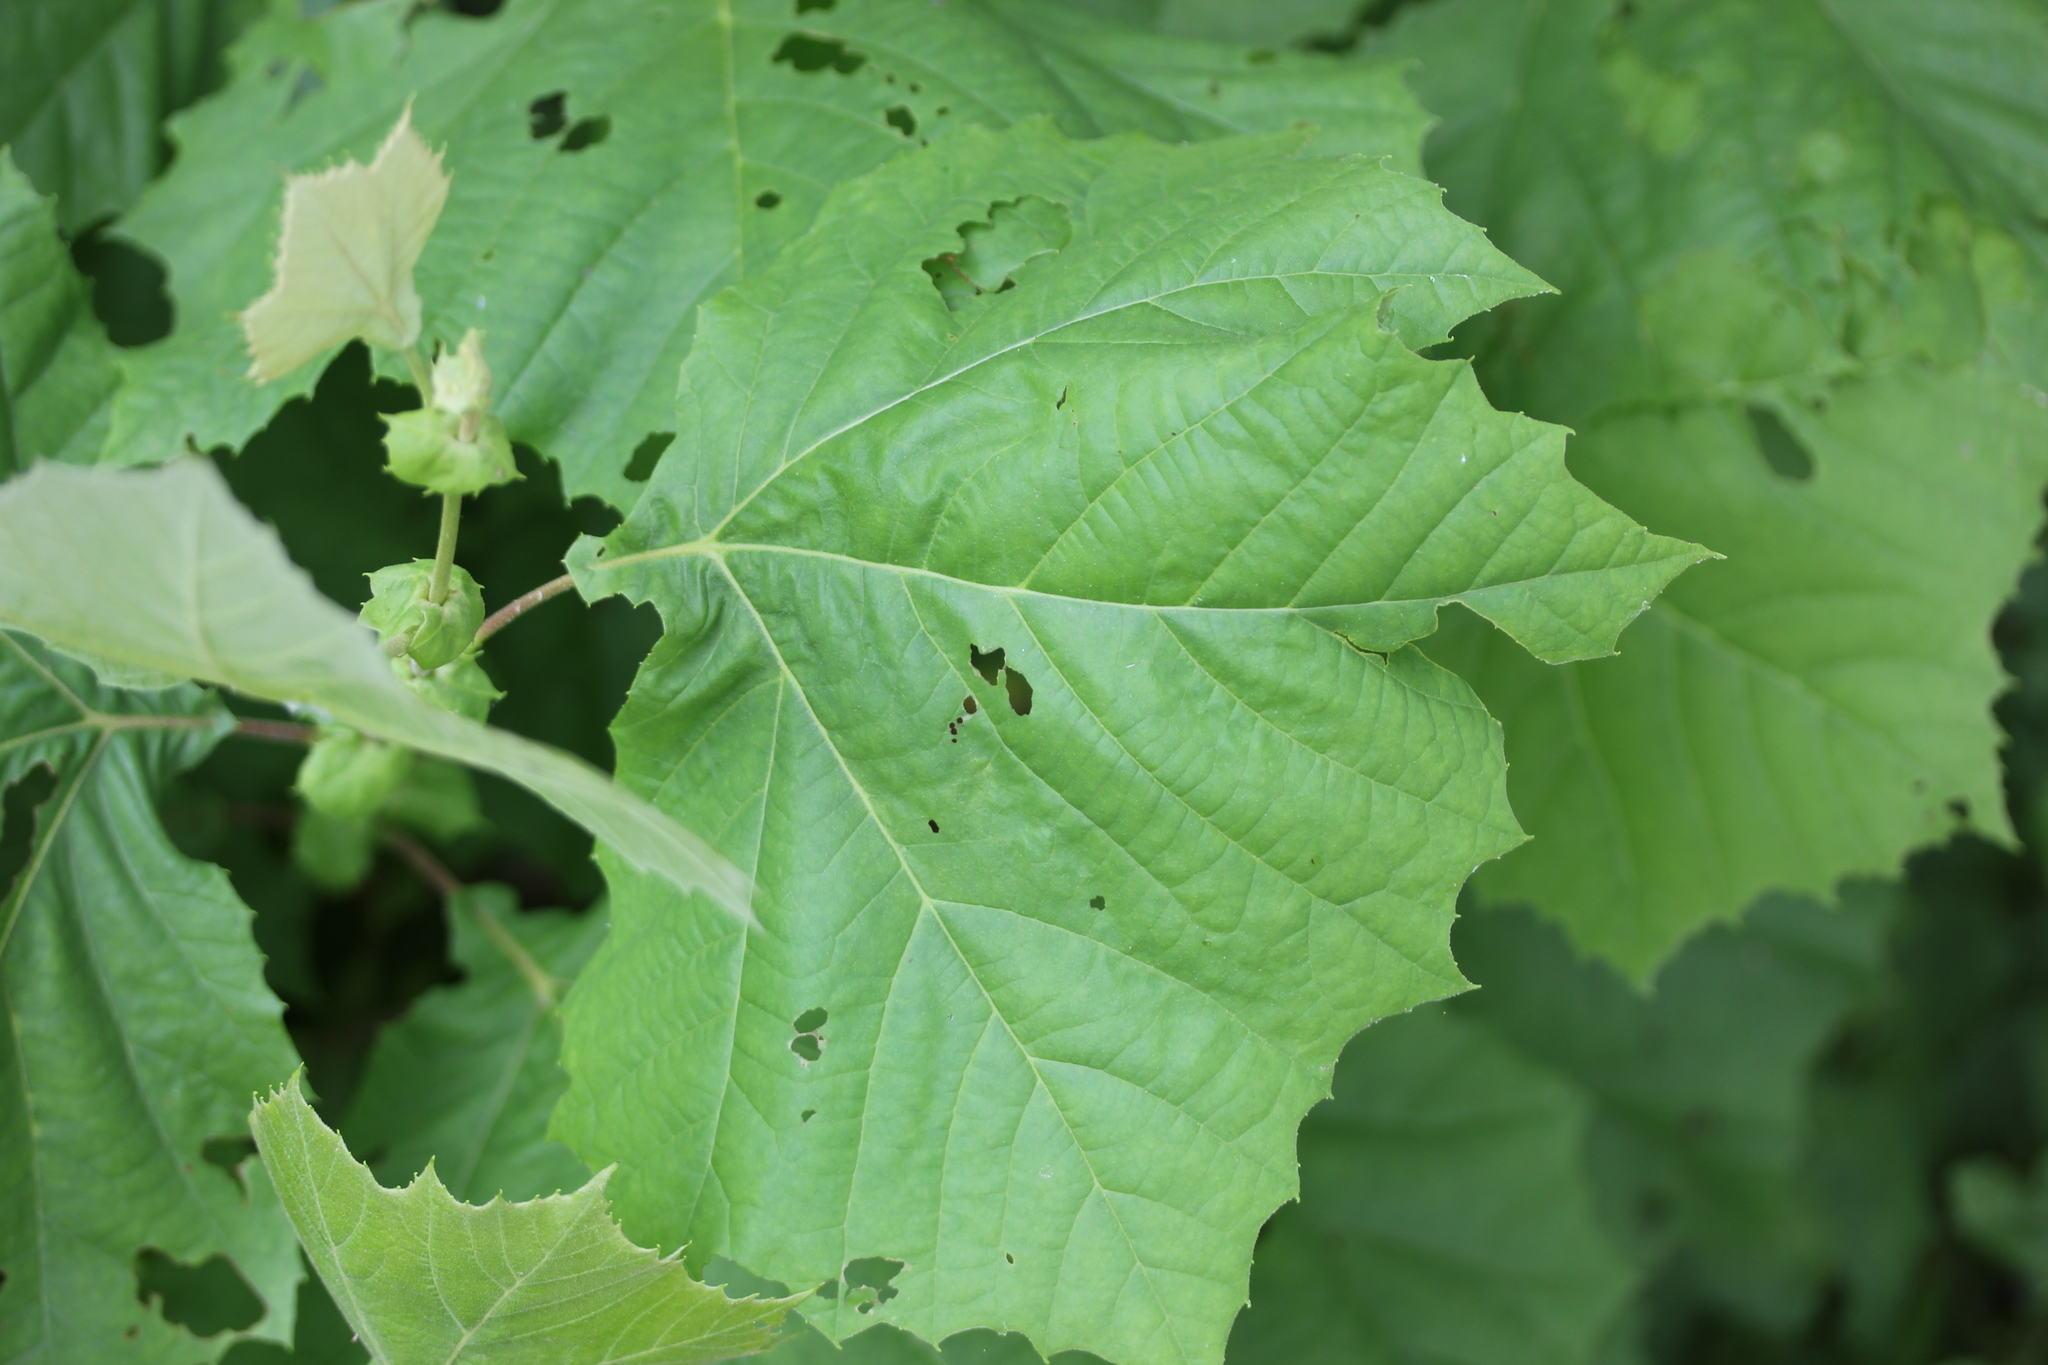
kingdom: Plantae
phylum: Tracheophyta
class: Magnoliopsida
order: Proteales
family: Platanaceae
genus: Platanus
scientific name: Platanus occidentalis
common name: American sycamore
